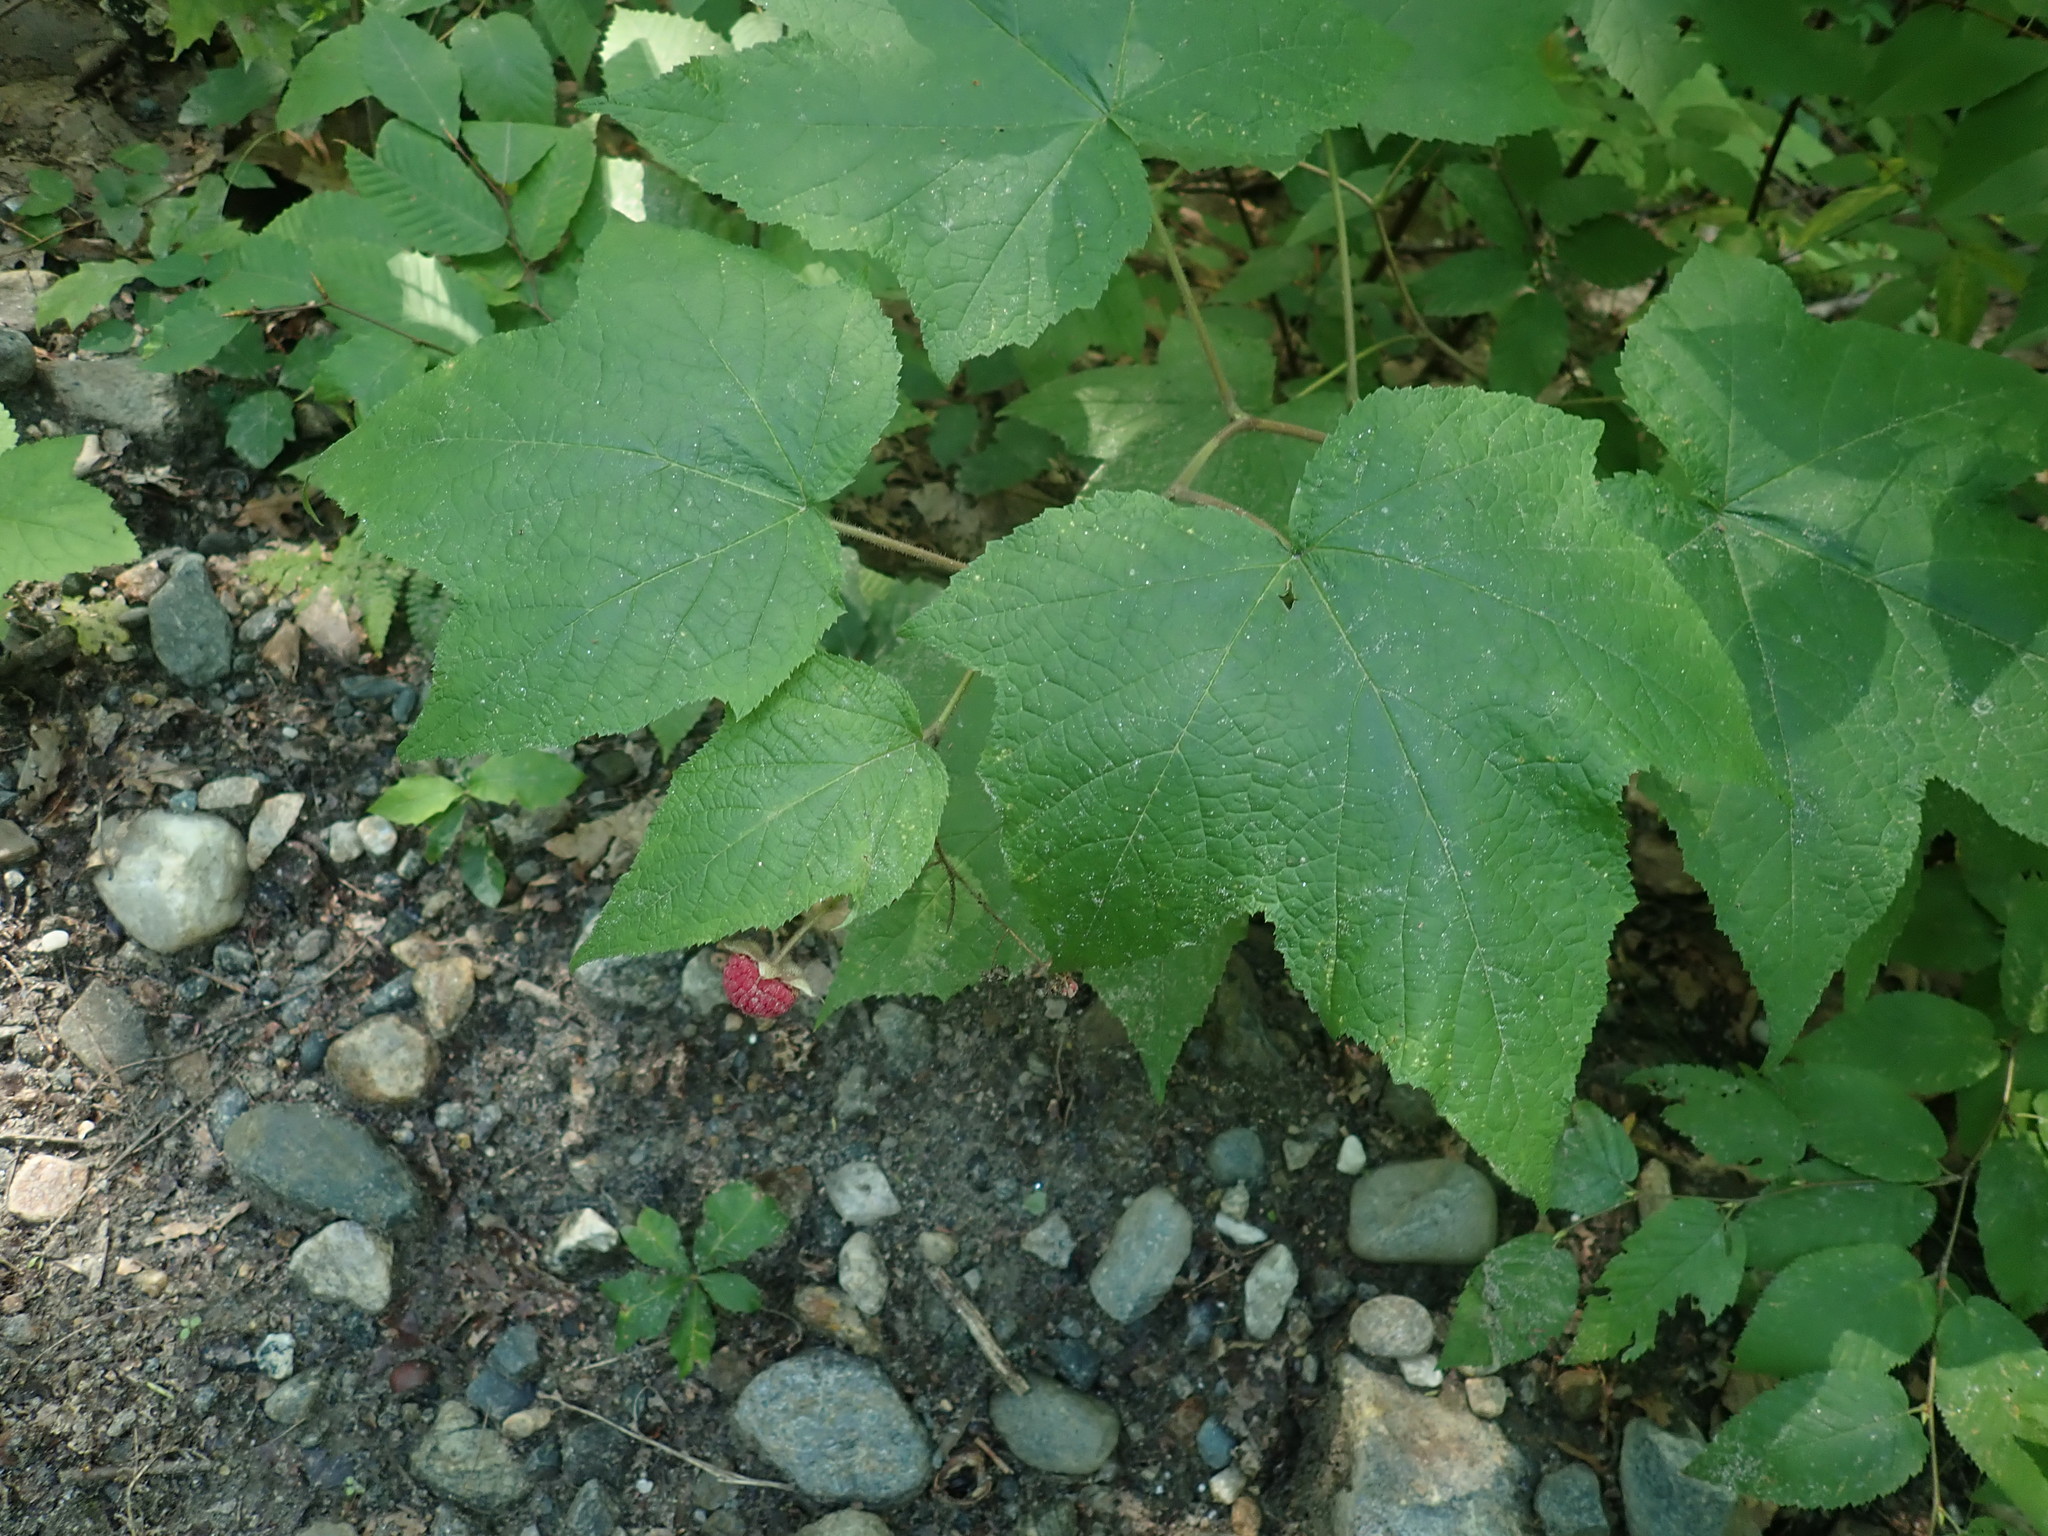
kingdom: Plantae
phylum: Tracheophyta
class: Magnoliopsida
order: Rosales
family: Rosaceae
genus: Rubus
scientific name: Rubus odoratus
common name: Purple-flowered raspberry
